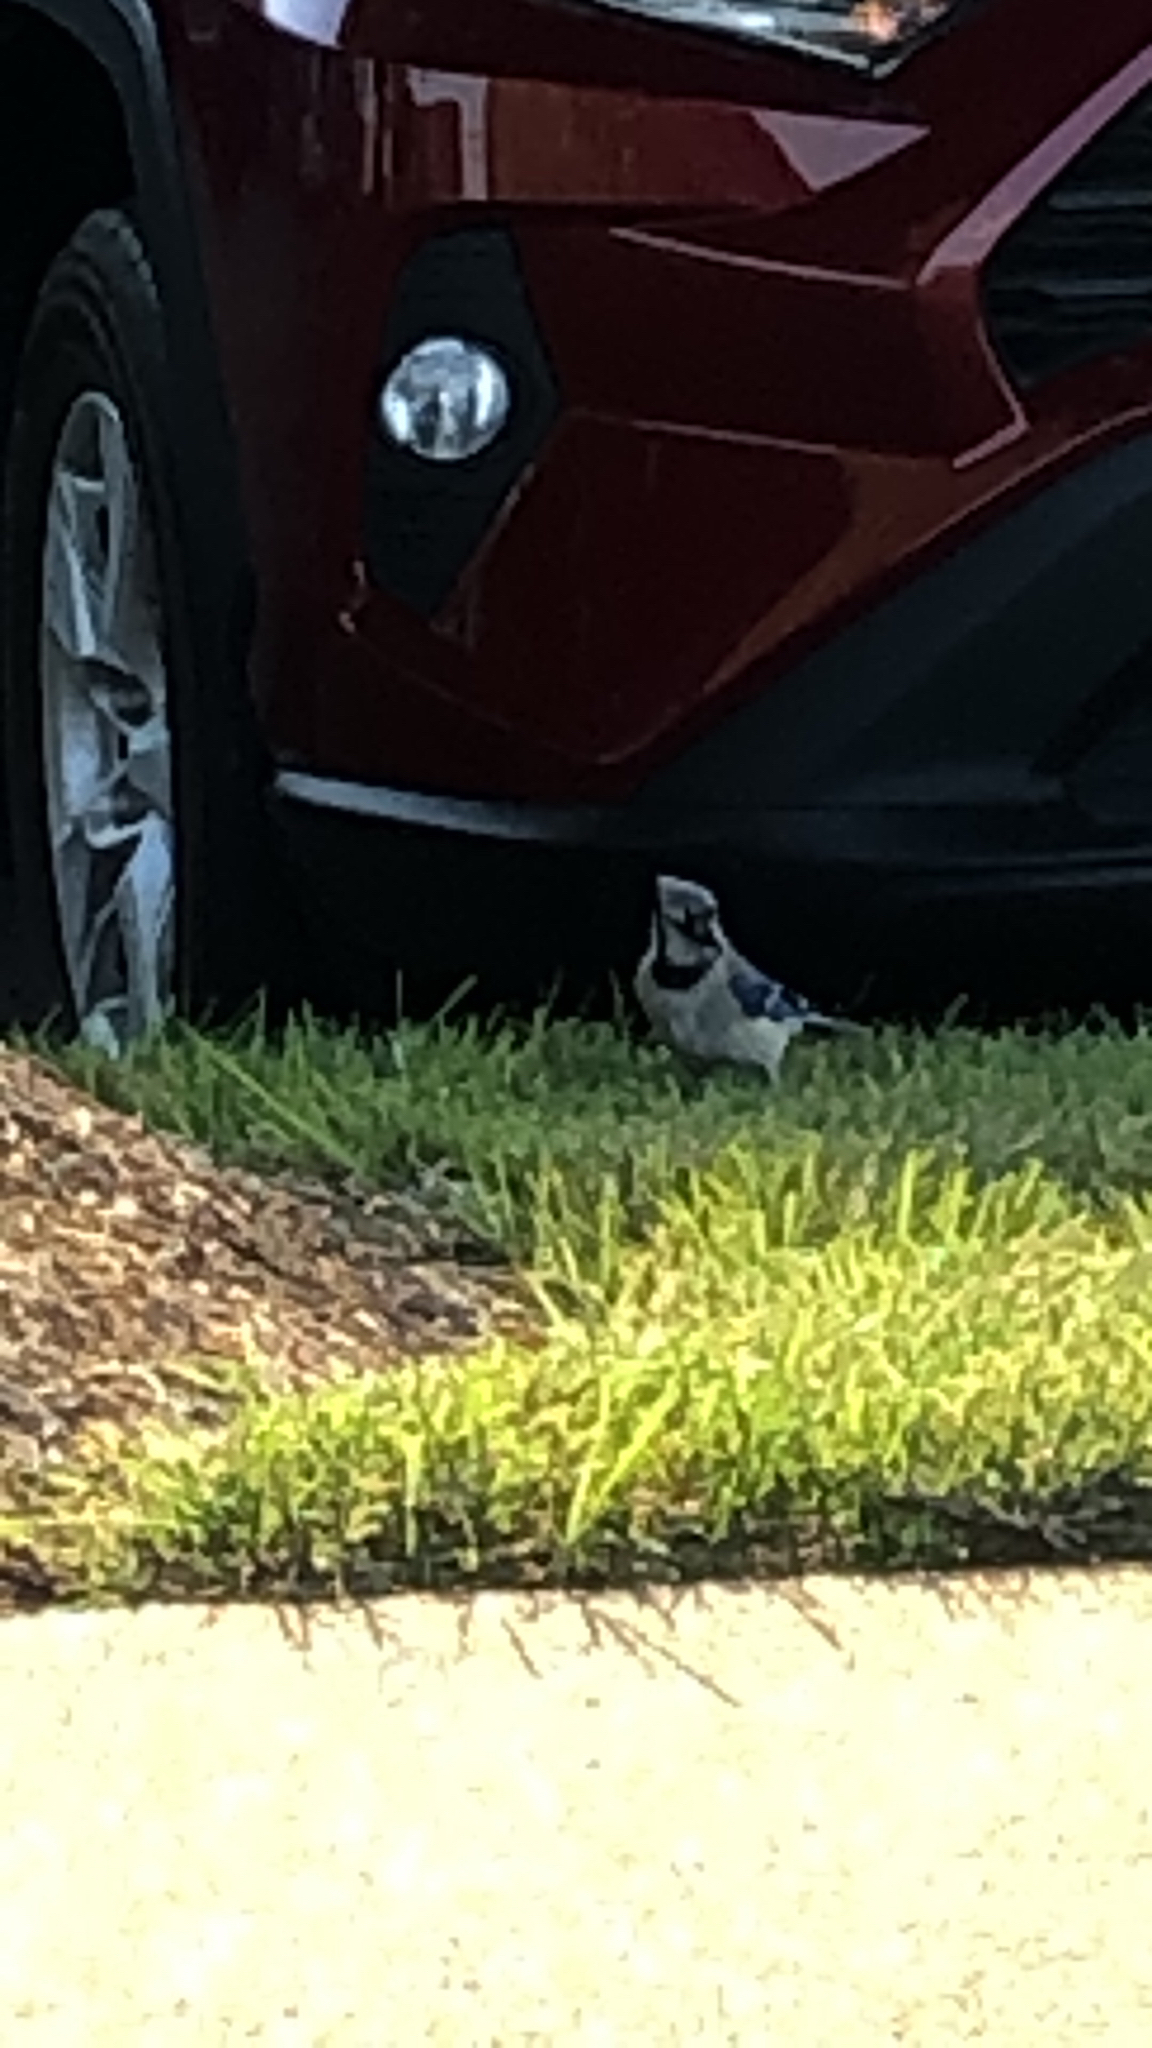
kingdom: Animalia
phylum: Chordata
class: Aves
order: Passeriformes
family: Corvidae
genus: Cyanocitta
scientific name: Cyanocitta cristata
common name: Blue jay
